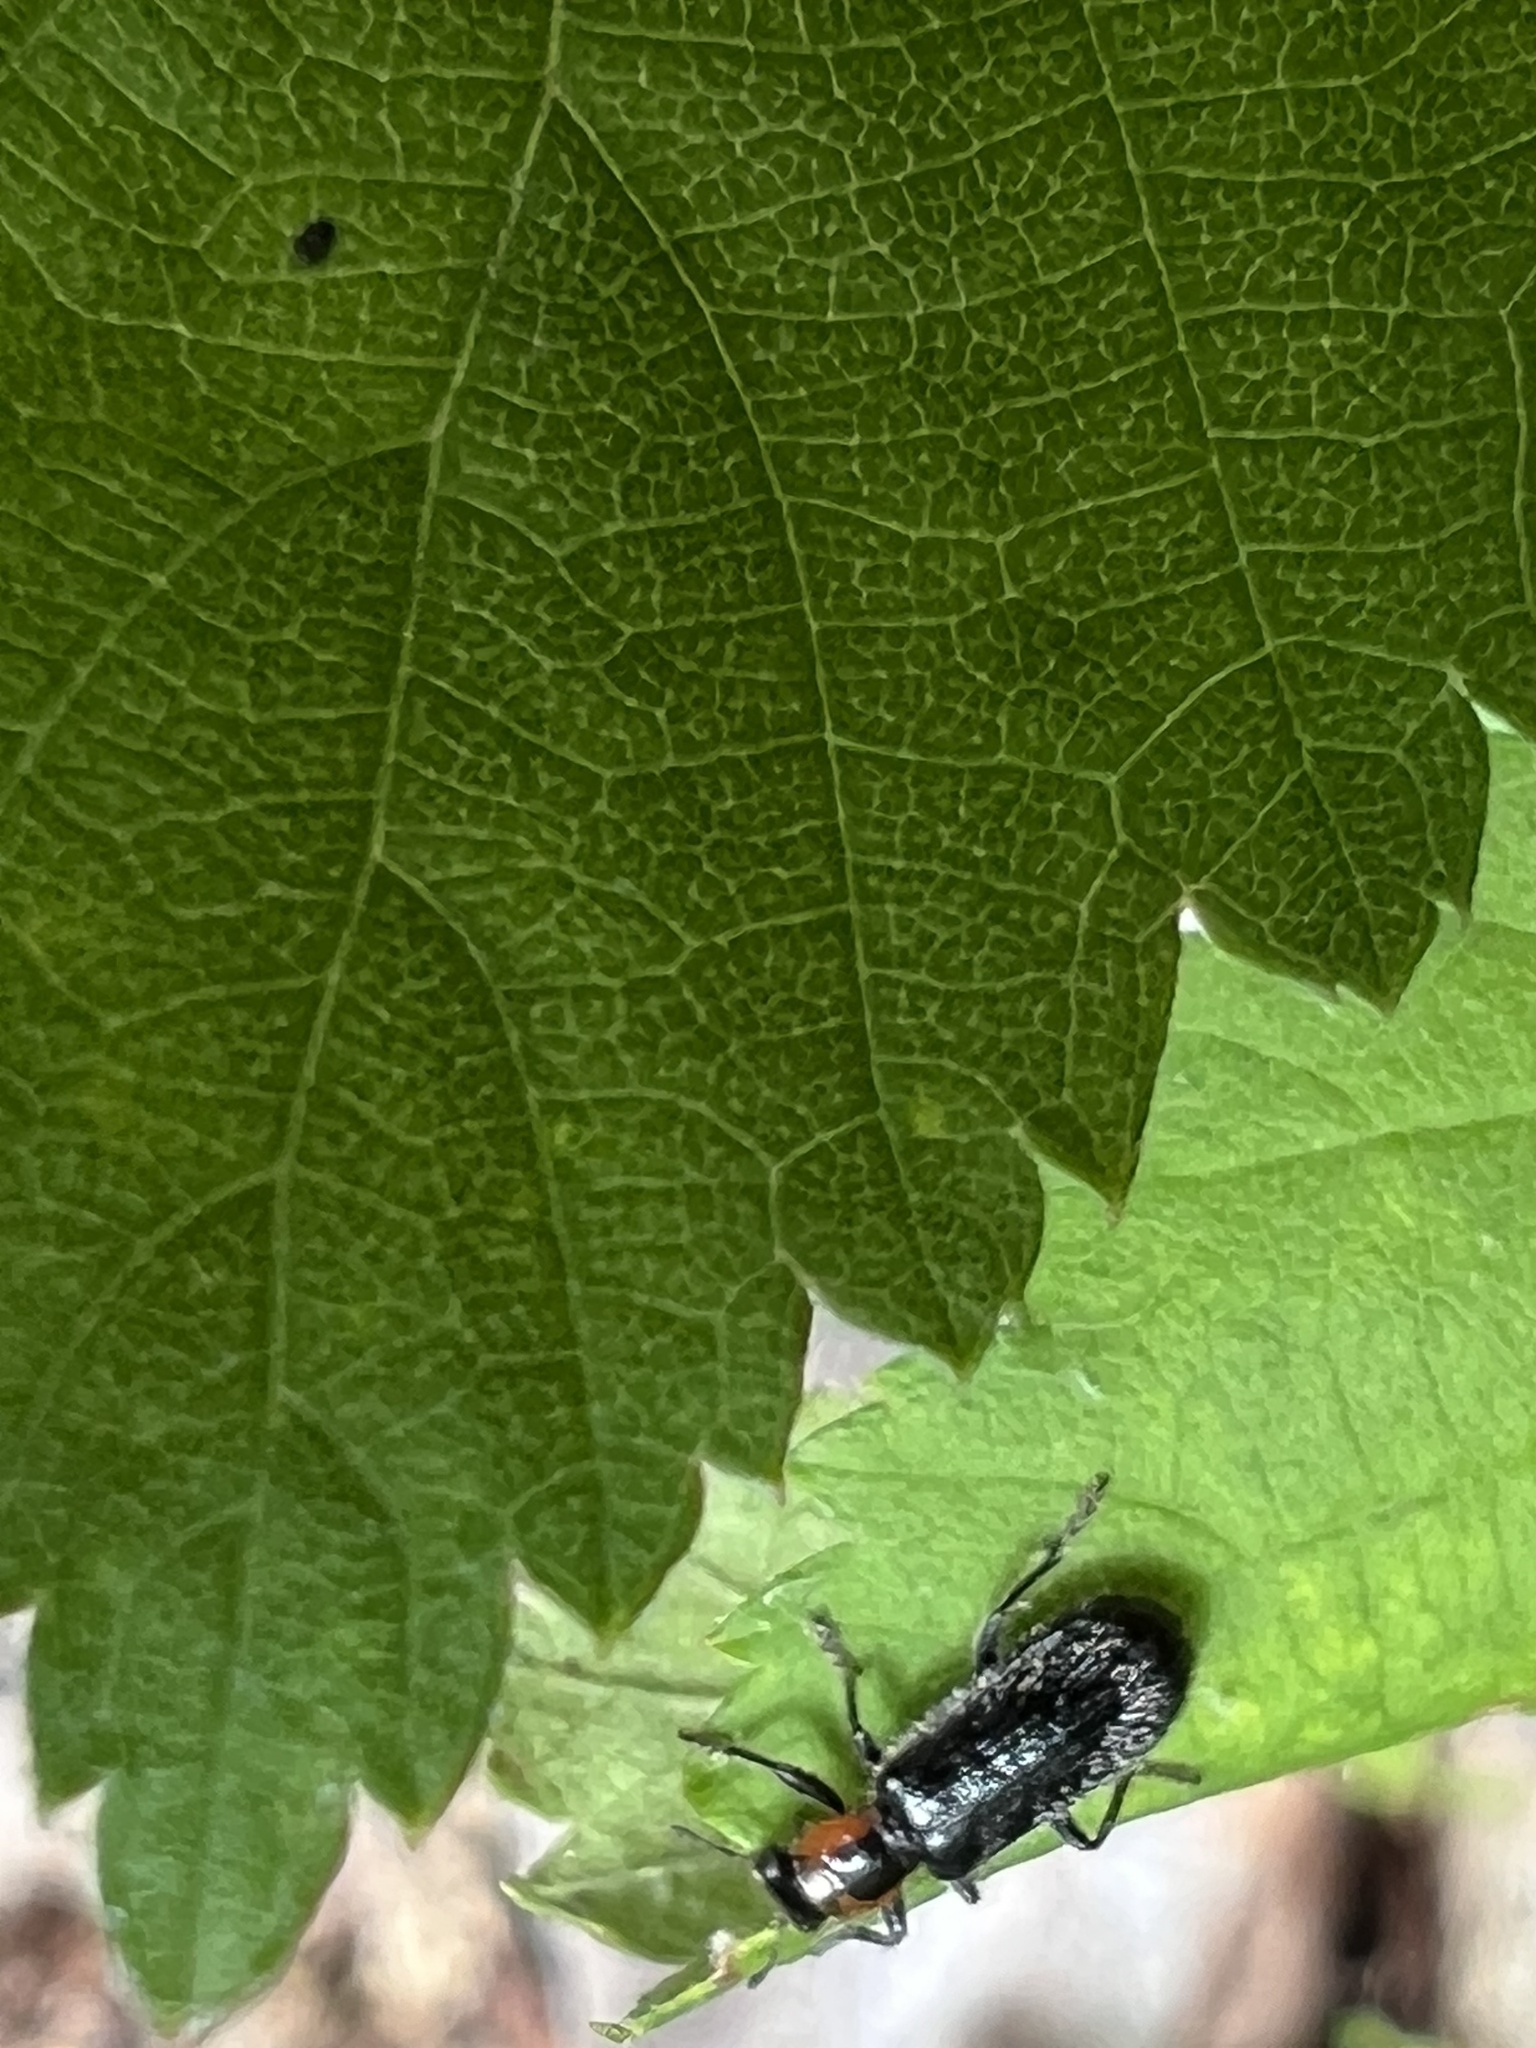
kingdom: Animalia
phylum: Arthropoda
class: Insecta
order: Coleoptera
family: Cleridae
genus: Placopterus
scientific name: Placopterus thoracicus
